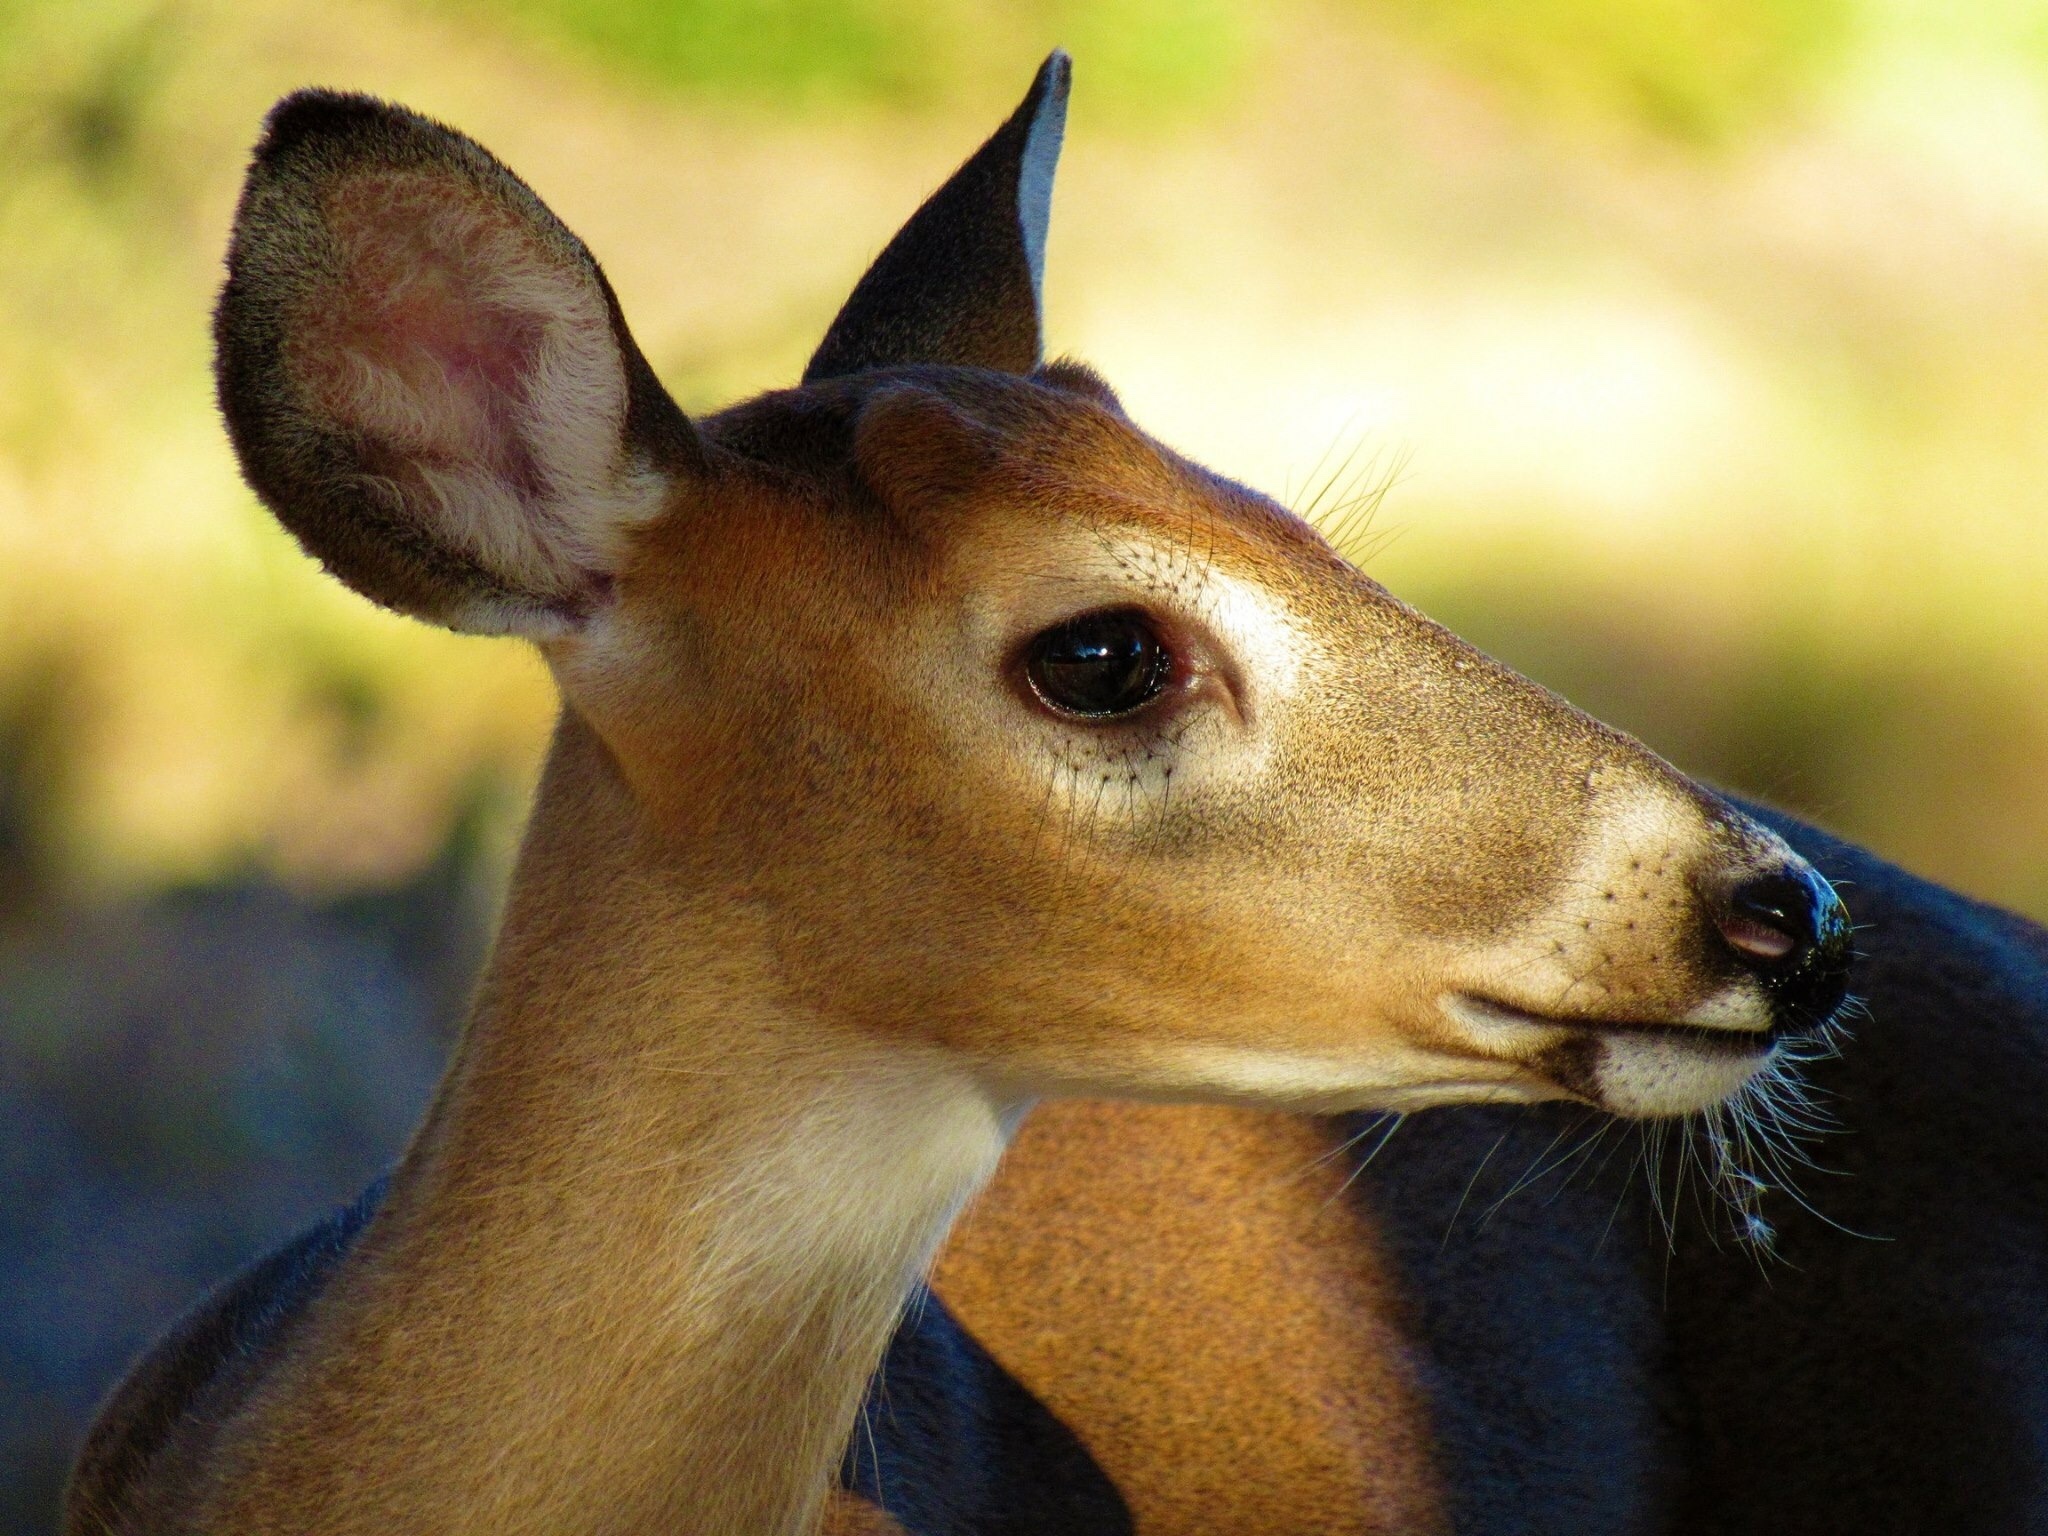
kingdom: Animalia
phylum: Chordata
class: Mammalia
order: Artiodactyla
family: Cervidae
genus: Odocoileus
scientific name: Odocoileus virginianus
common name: White-tailed deer
